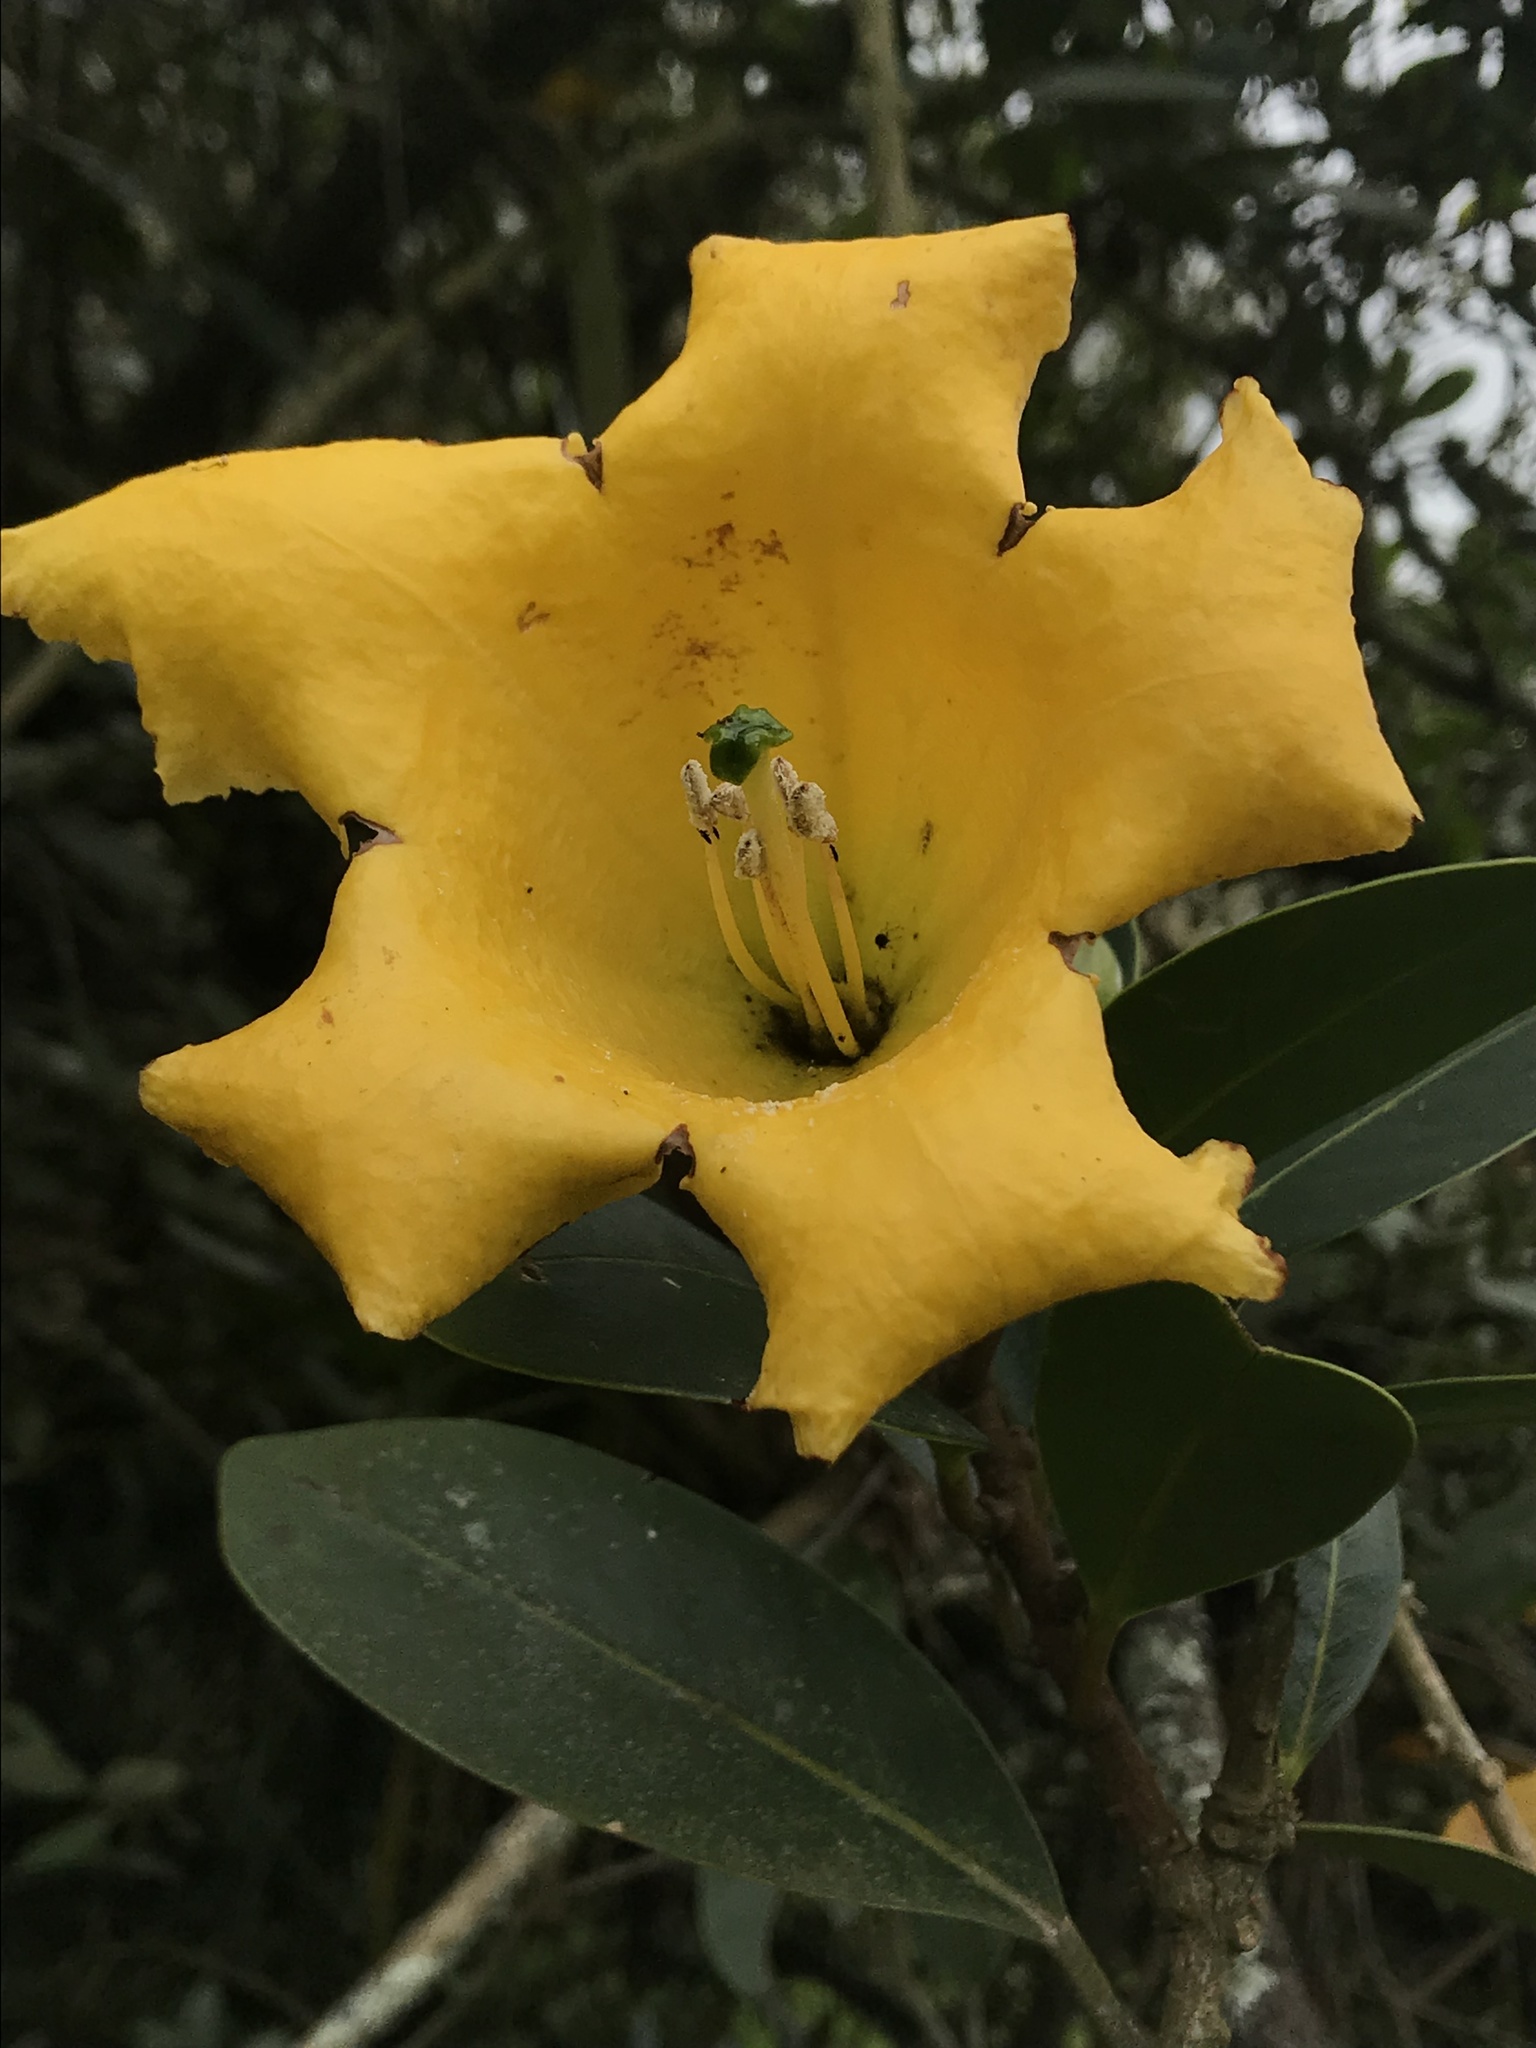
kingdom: Plantae
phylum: Tracheophyta
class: Magnoliopsida
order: Solanales
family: Solanaceae
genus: Schultesianthus
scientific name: Schultesianthus coriaceus
